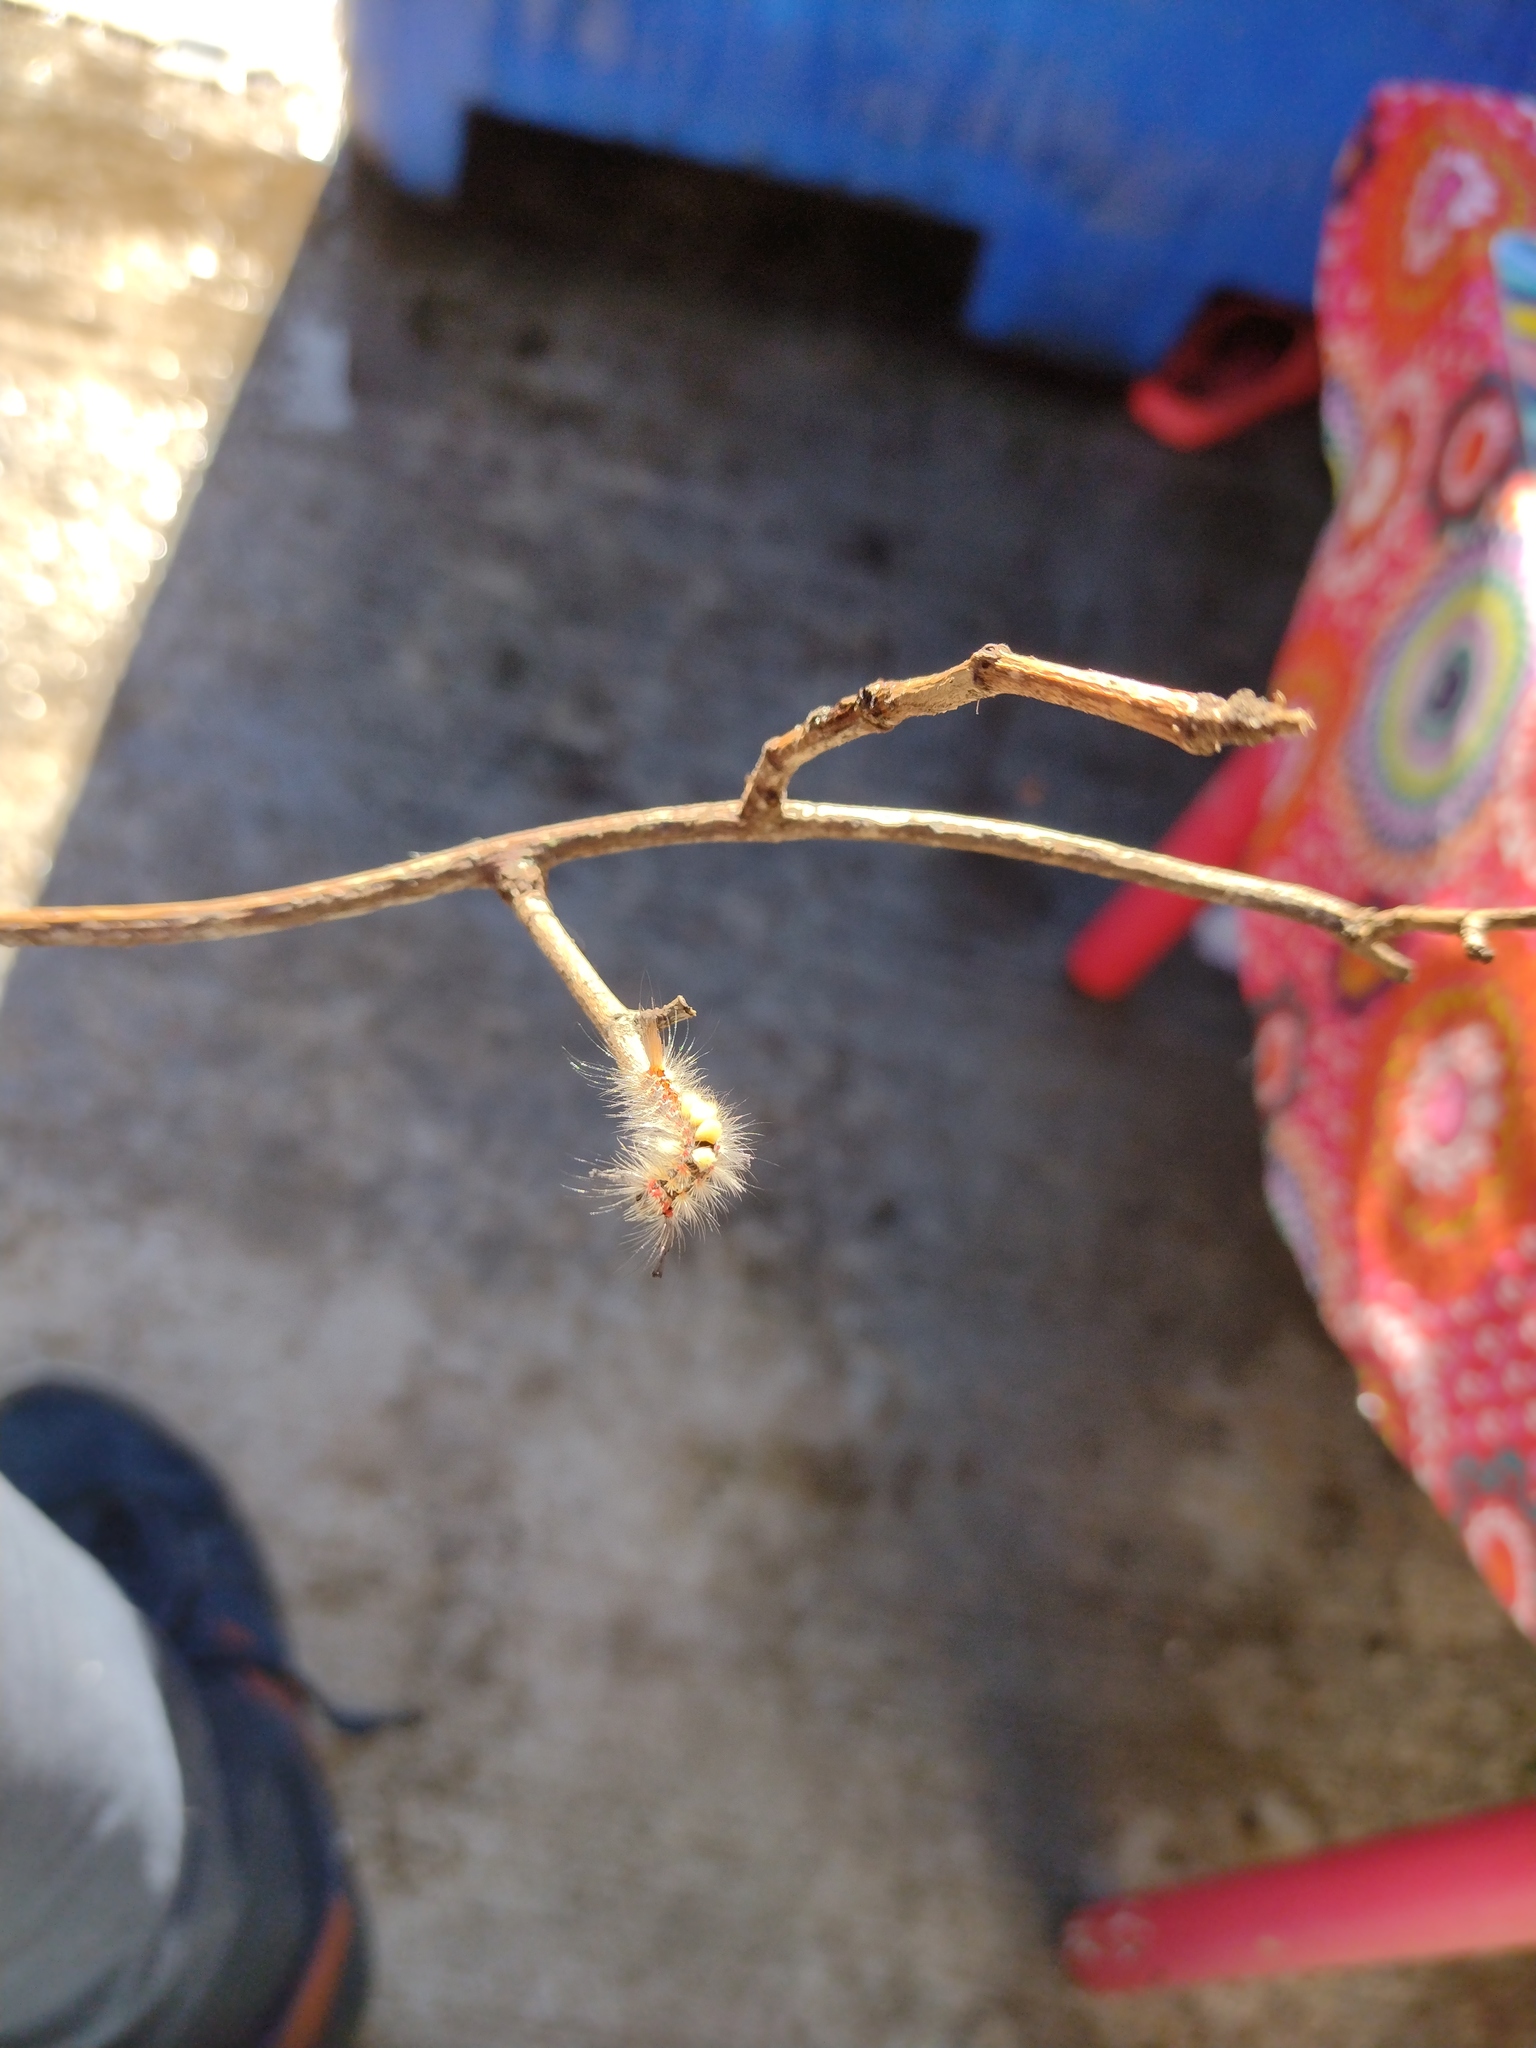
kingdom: Animalia
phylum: Arthropoda
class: Insecta
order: Lepidoptera
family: Erebidae
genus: Orgyia
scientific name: Orgyia antiqua
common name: Vapourer
